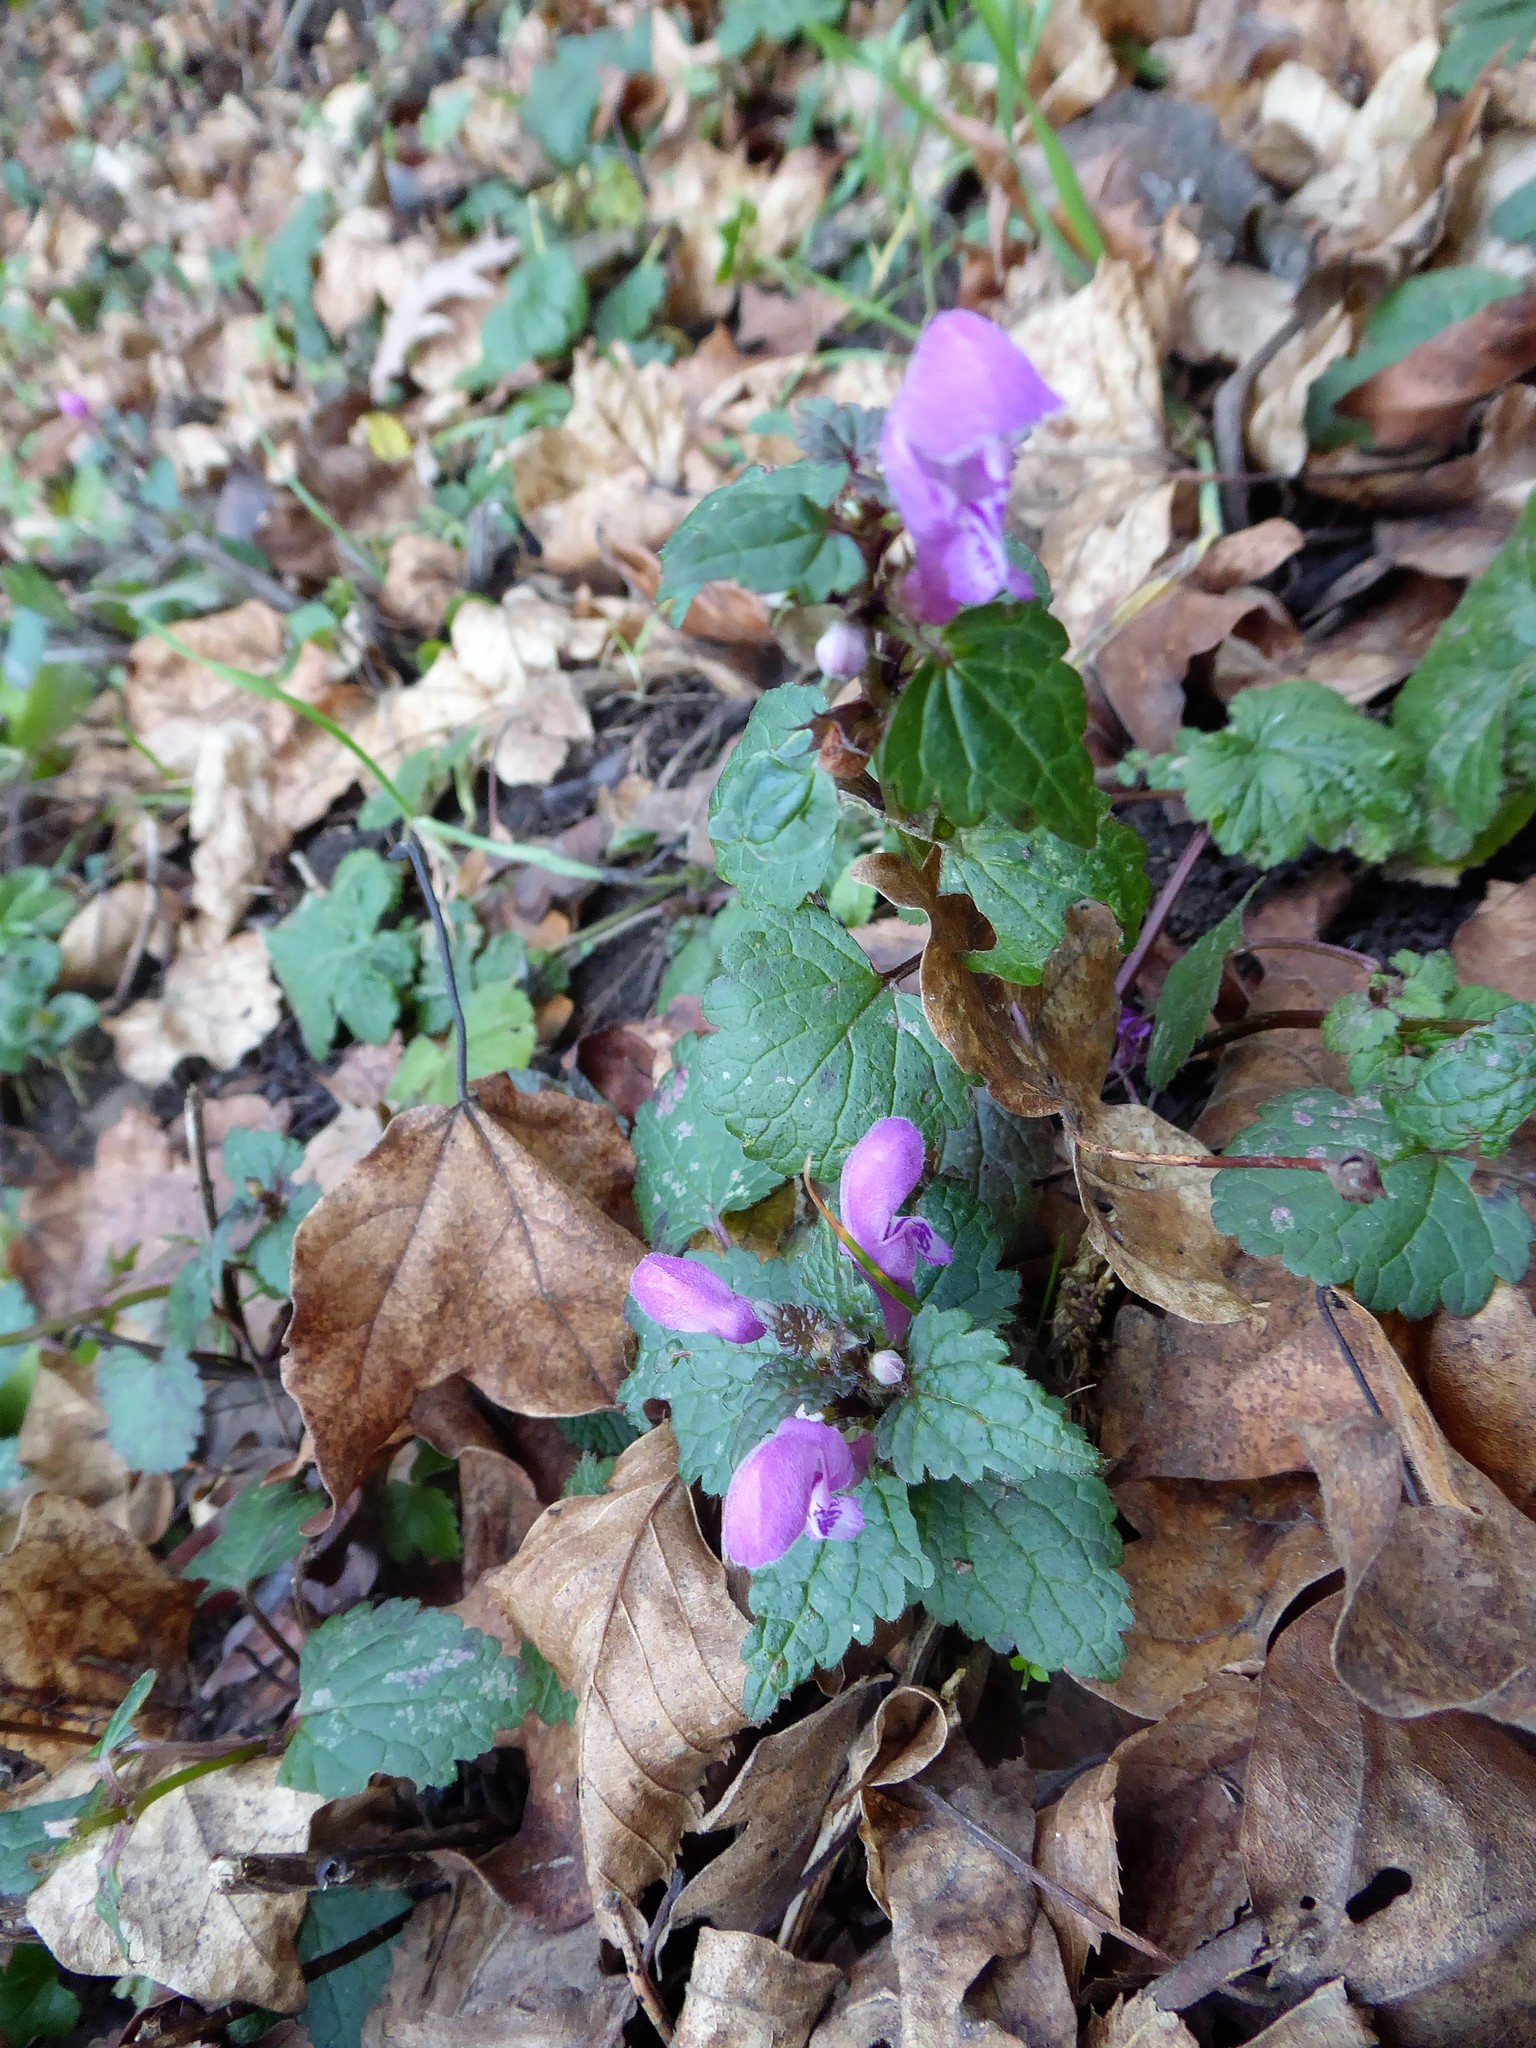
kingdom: Plantae
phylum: Tracheophyta
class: Magnoliopsida
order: Lamiales
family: Lamiaceae
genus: Lamium
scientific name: Lamium maculatum
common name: Spotted dead-nettle
